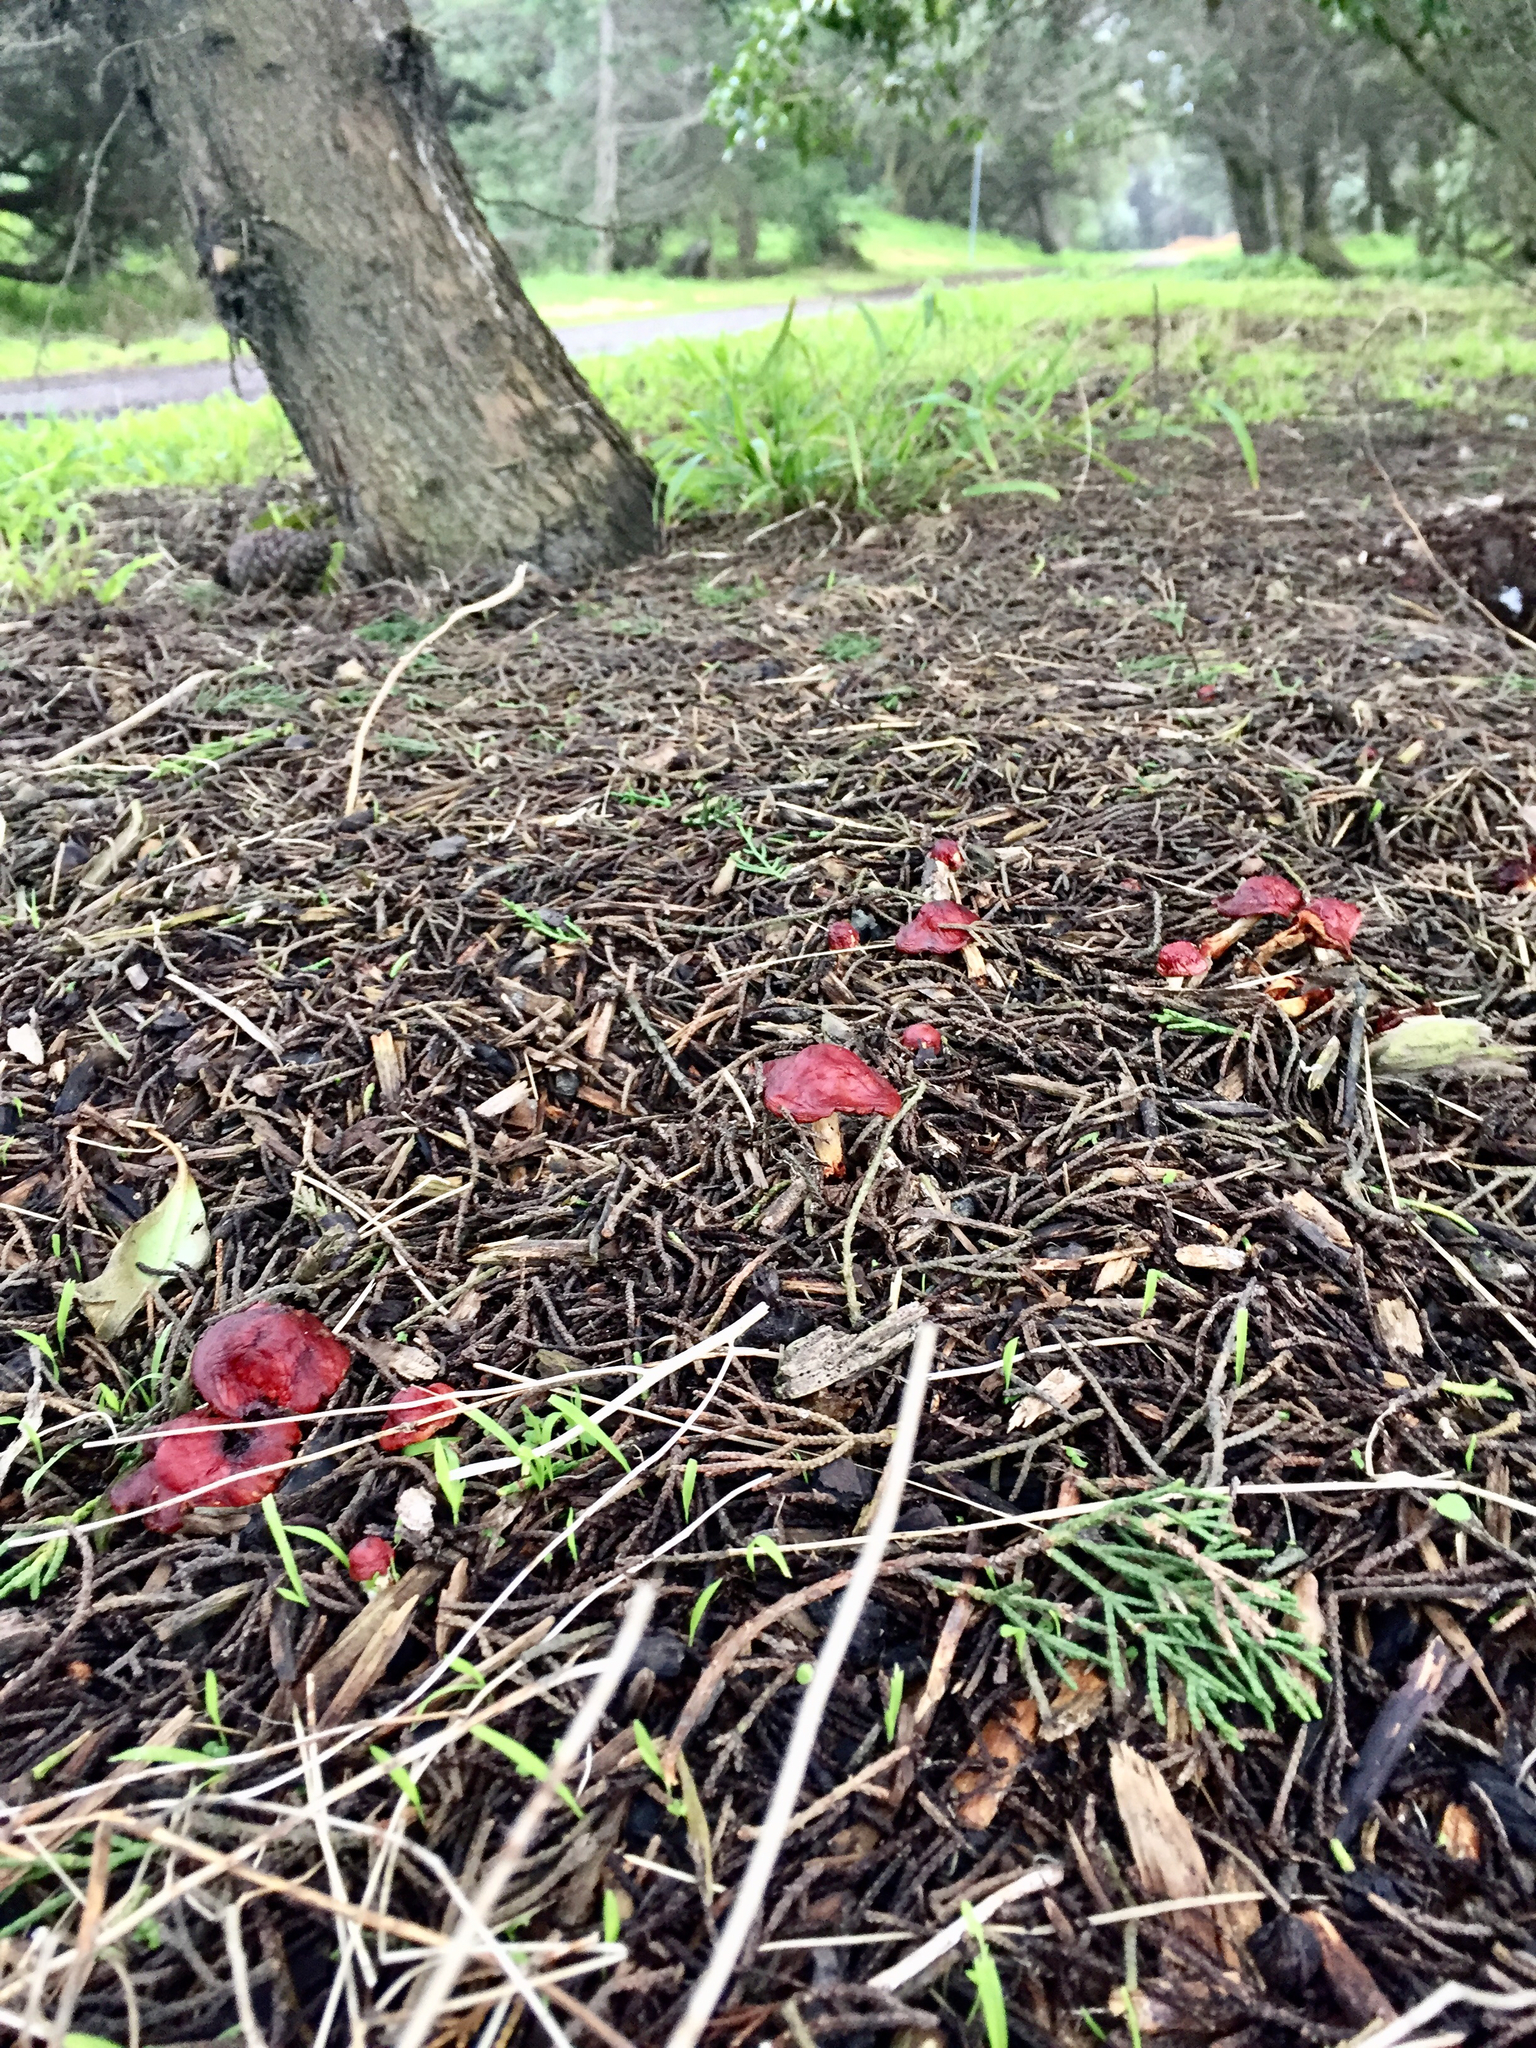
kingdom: Fungi
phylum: Basidiomycota
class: Agaricomycetes
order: Agaricales
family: Strophariaceae
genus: Leratiomyces
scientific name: Leratiomyces ceres
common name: Redlead roundhead
